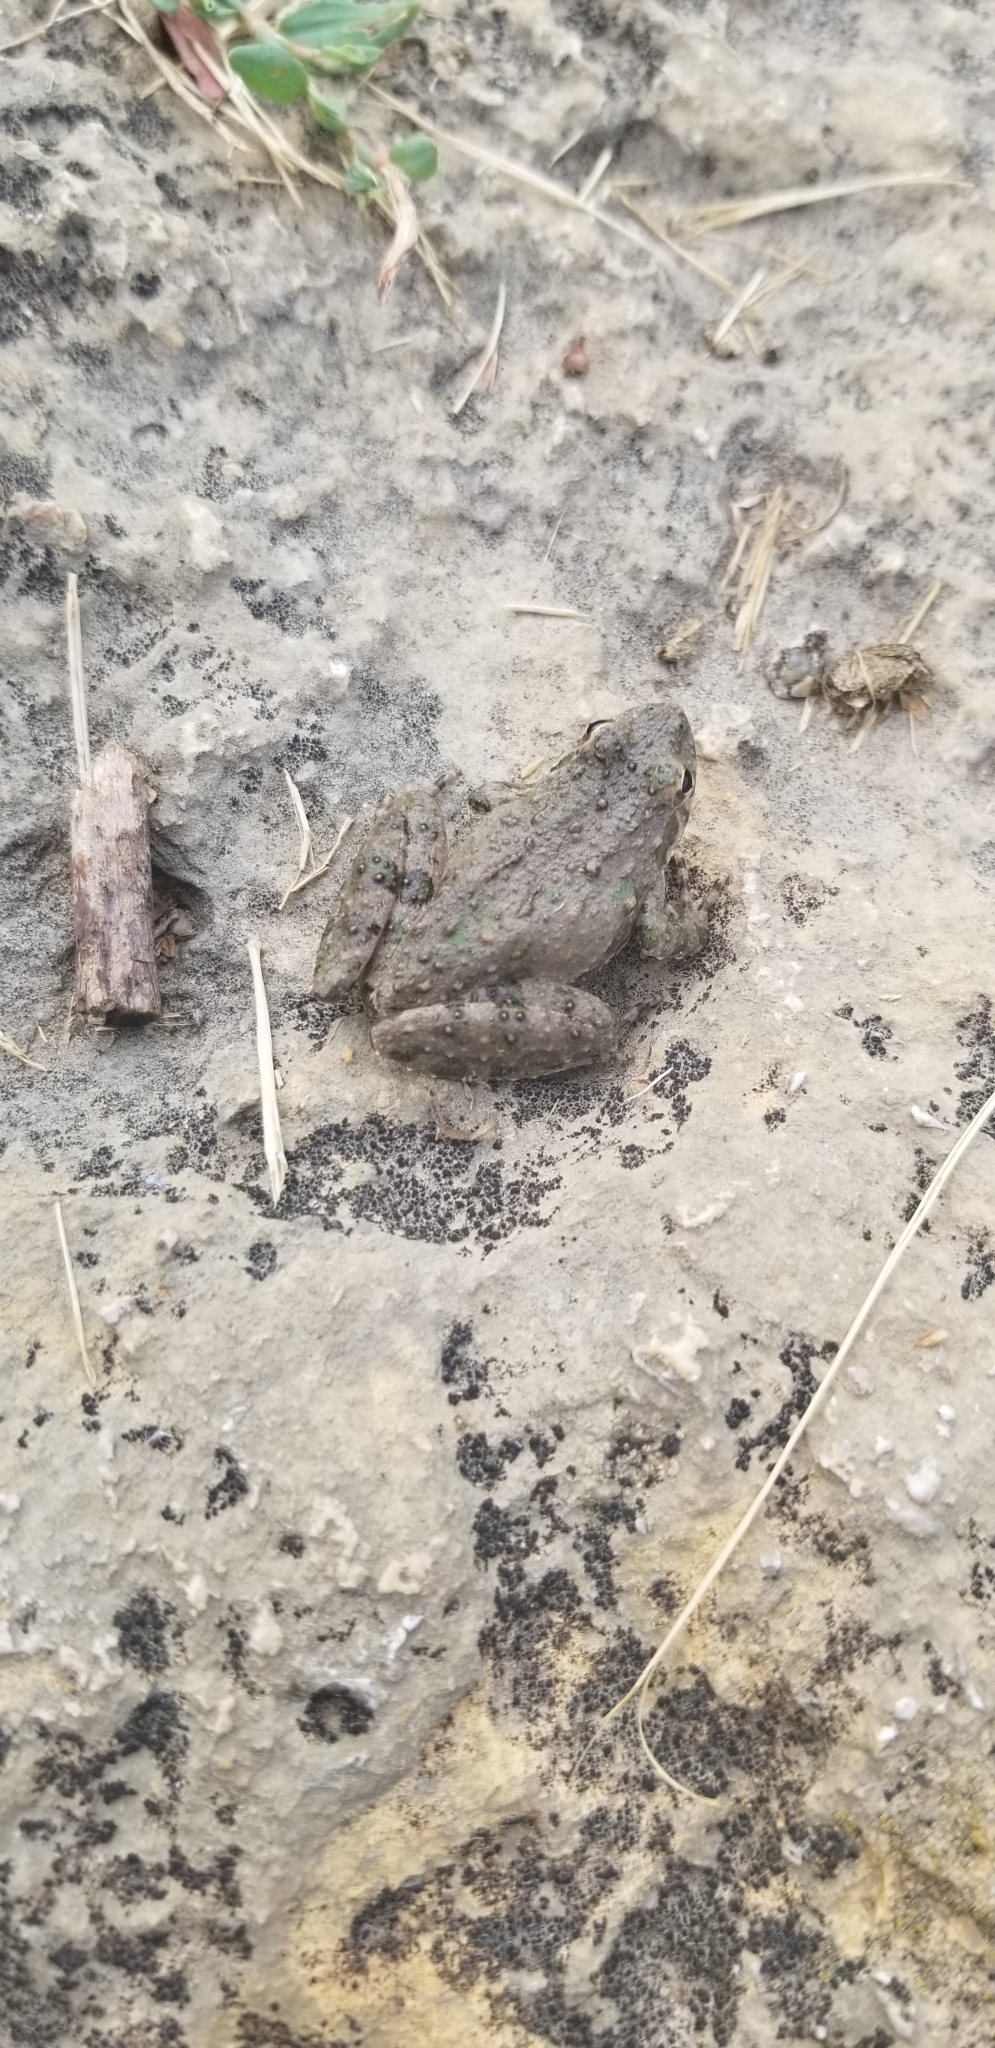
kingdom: Animalia
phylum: Chordata
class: Amphibia
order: Anura
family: Hylidae
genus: Acris
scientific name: Acris blanchardi
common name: Blanchard's cricket frog
